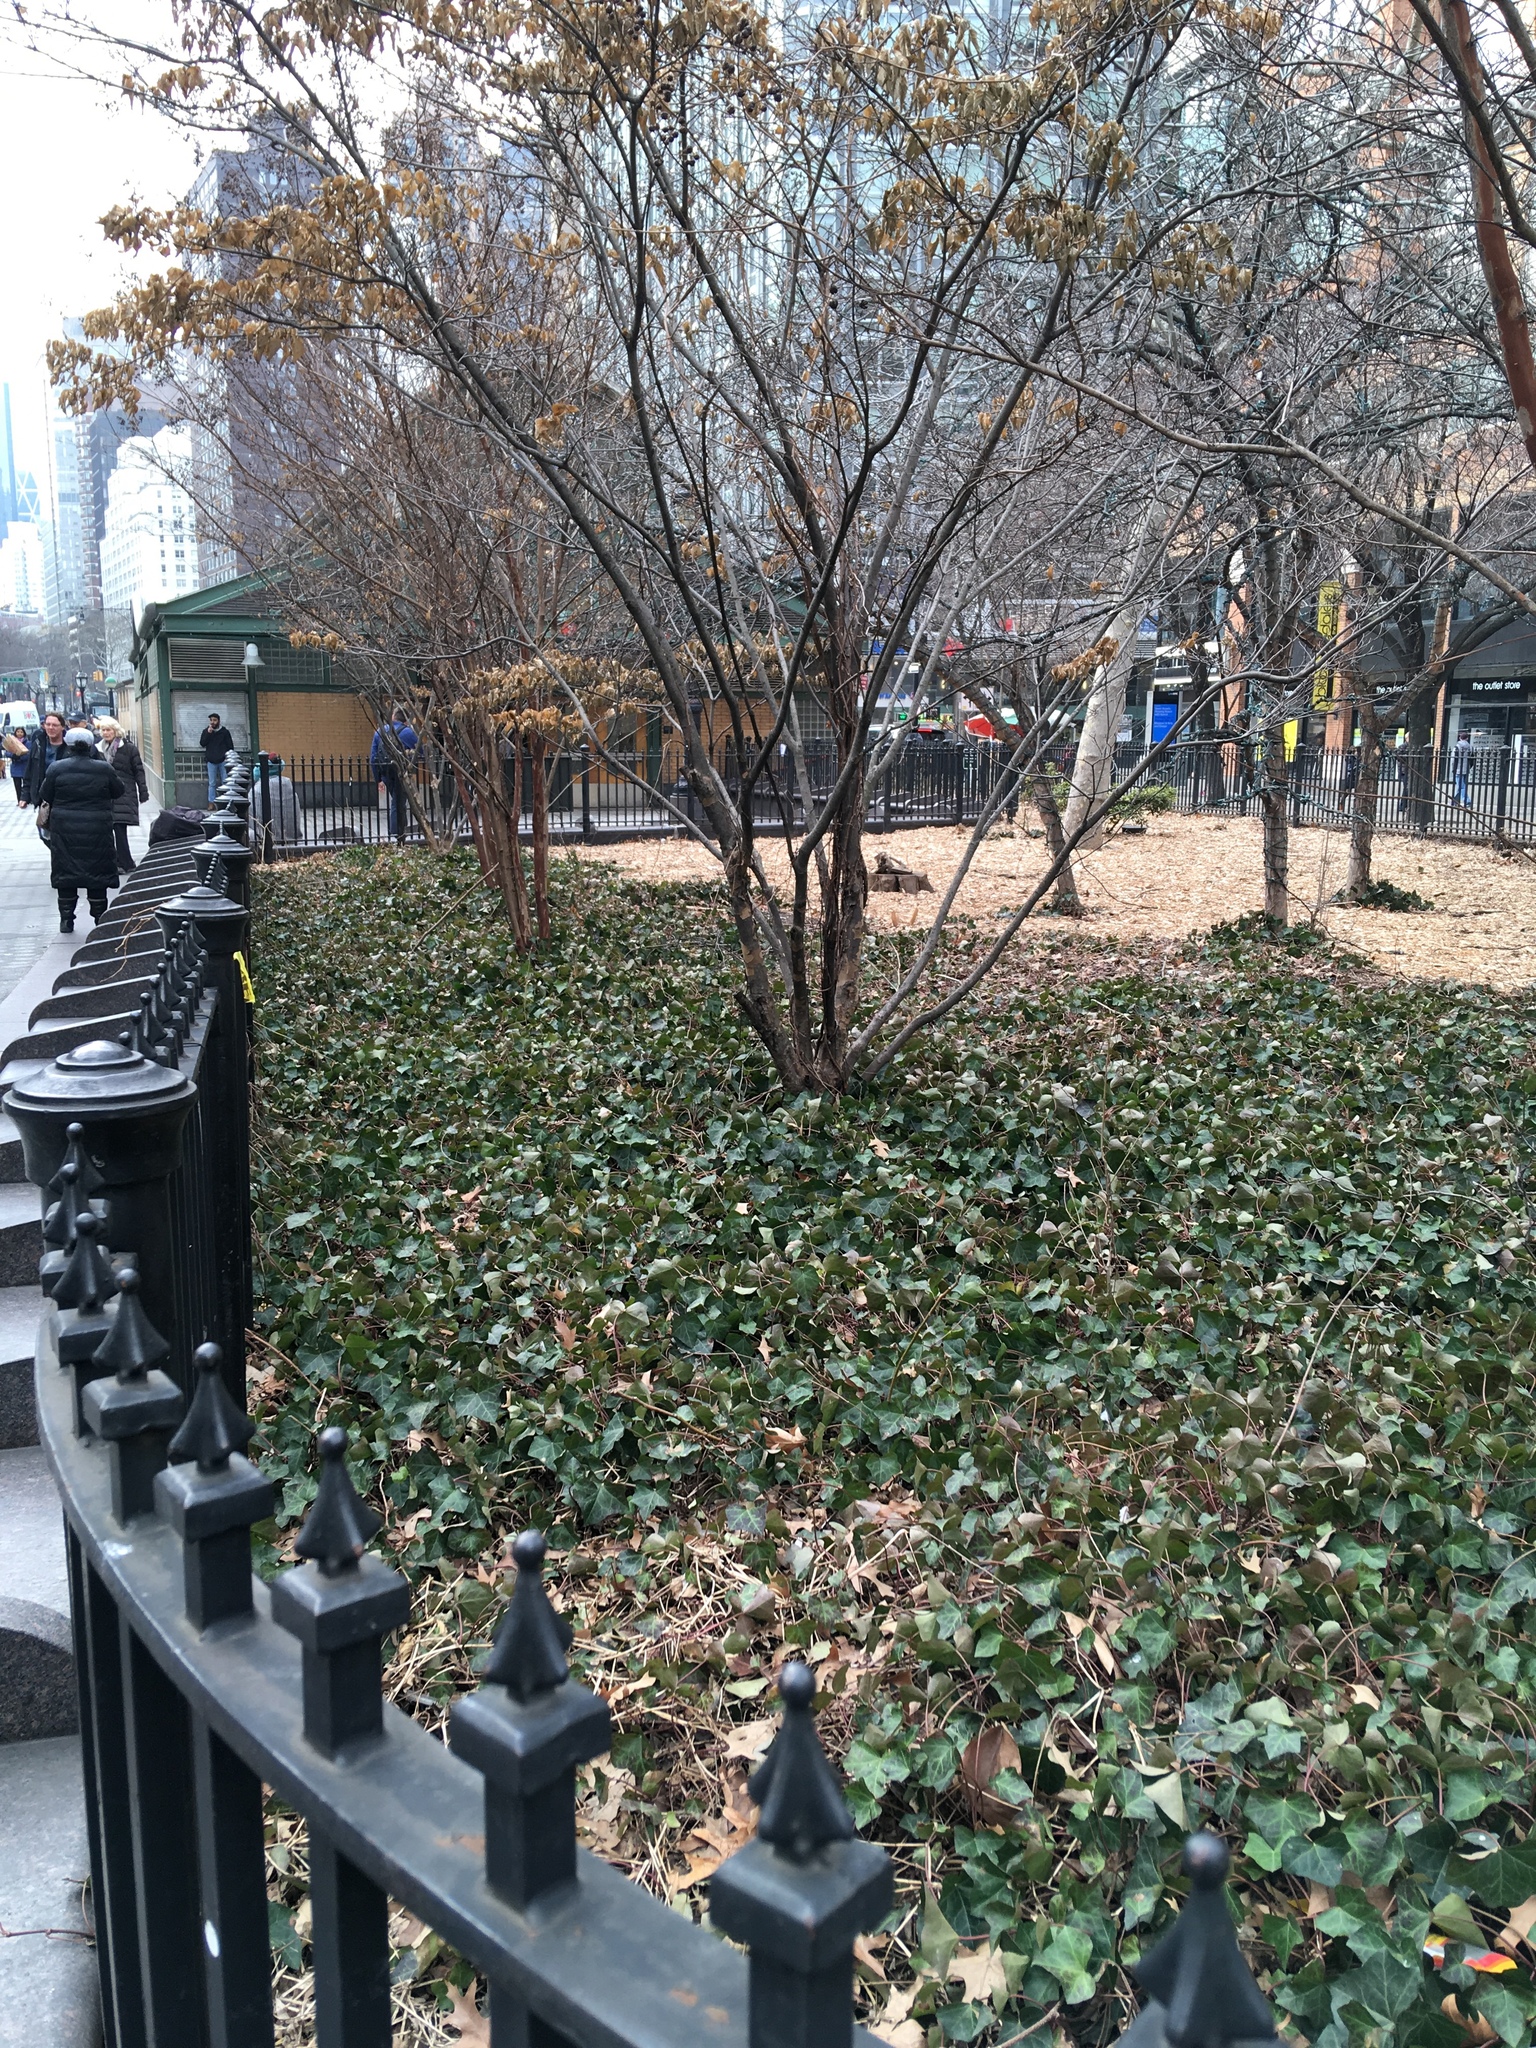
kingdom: Plantae
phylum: Tracheophyta
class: Magnoliopsida
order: Apiales
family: Araliaceae
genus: Hedera
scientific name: Hedera helix
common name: Ivy
